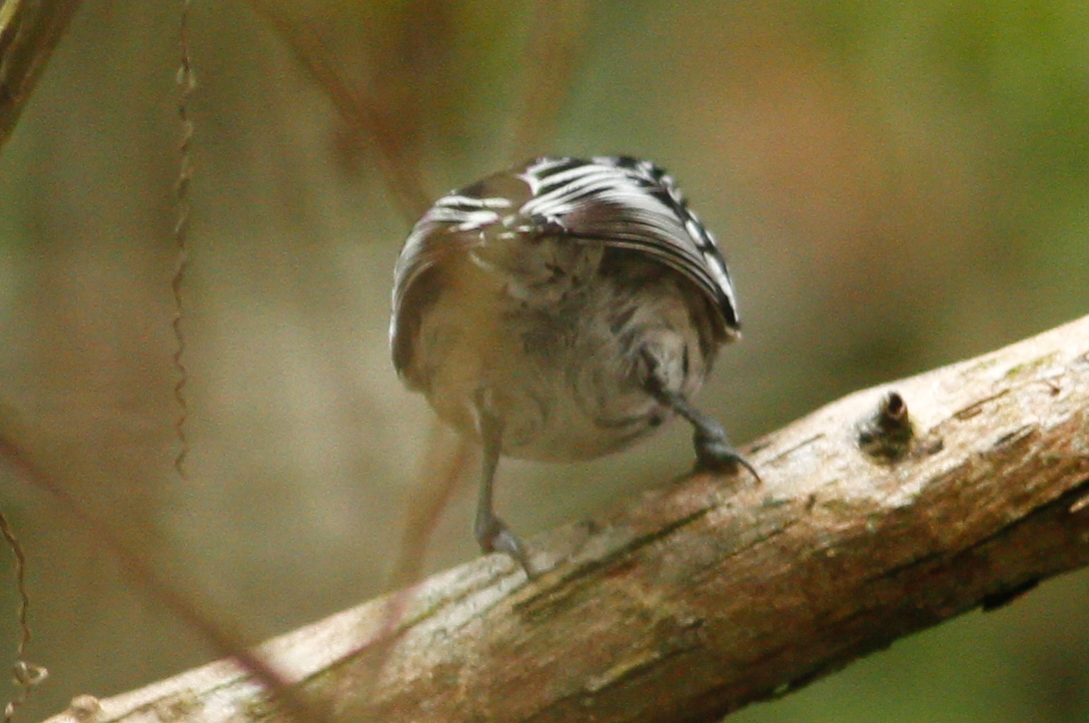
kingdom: Animalia
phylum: Chordata
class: Aves
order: Passeriformes
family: Thamnophilidae
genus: Myrmotherula
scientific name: Myrmotherula multostriata
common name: Amazonian streaked antwren
